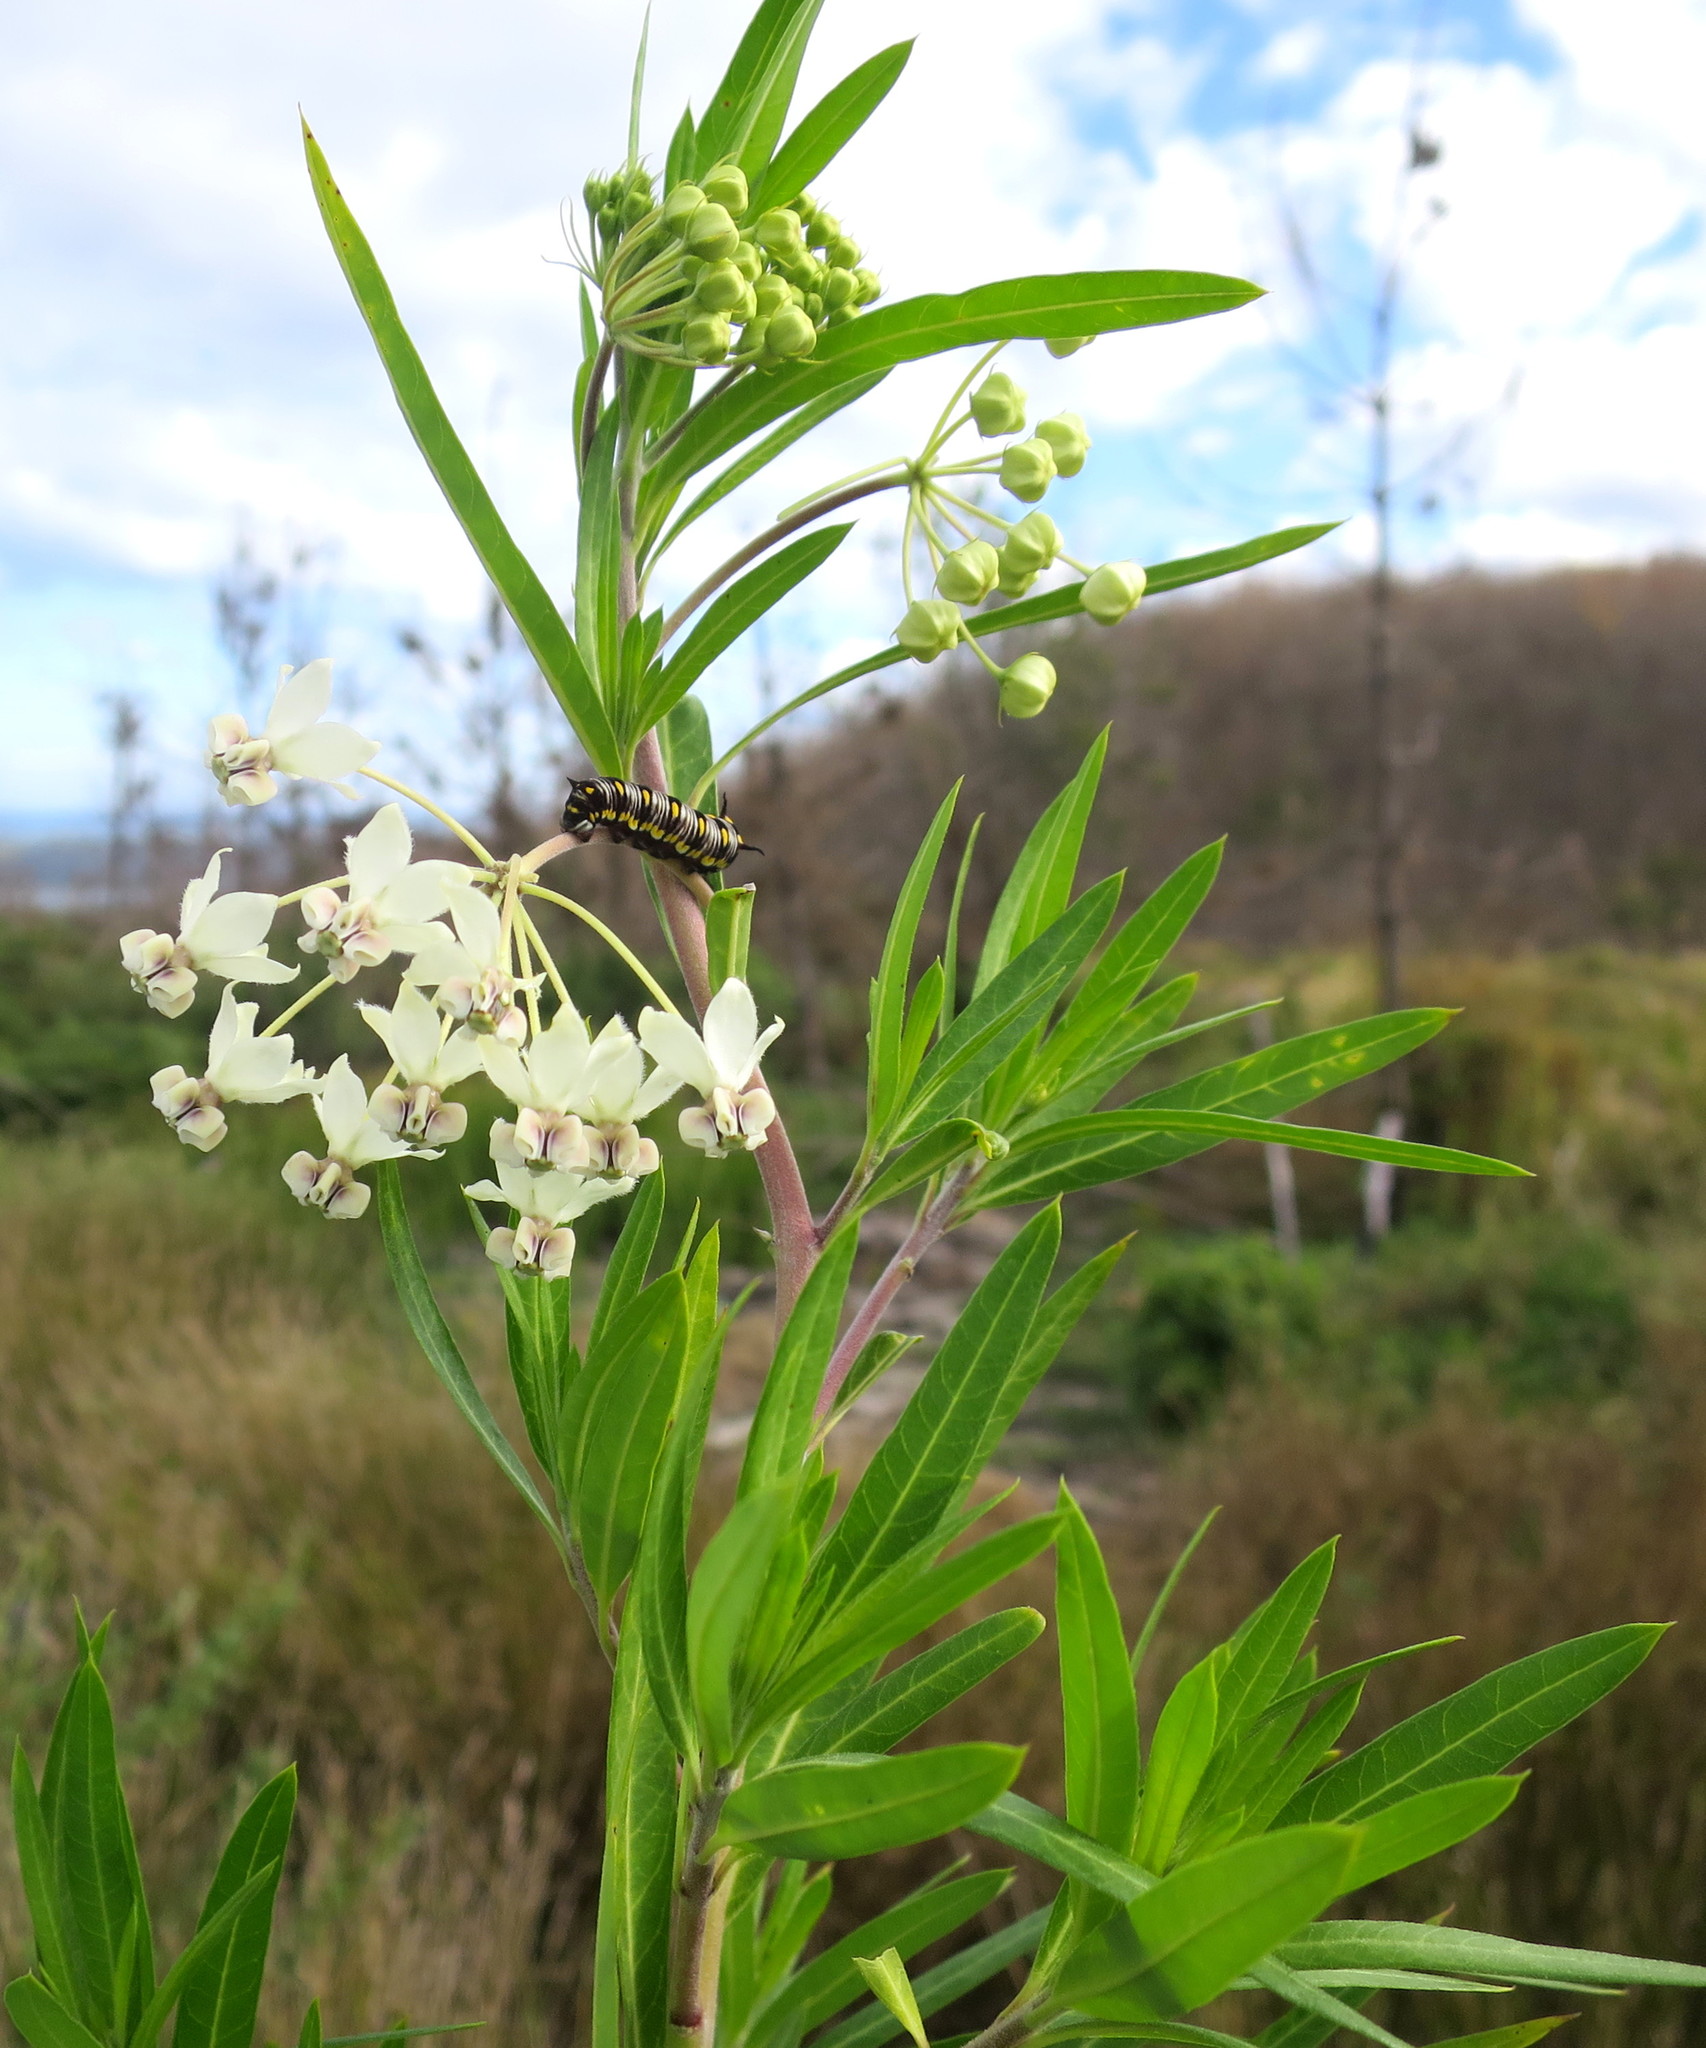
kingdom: Plantae
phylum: Tracheophyta
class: Magnoliopsida
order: Gentianales
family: Apocynaceae
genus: Gomphocarpus
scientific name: Gomphocarpus physocarpus
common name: Balloon cotton bush
